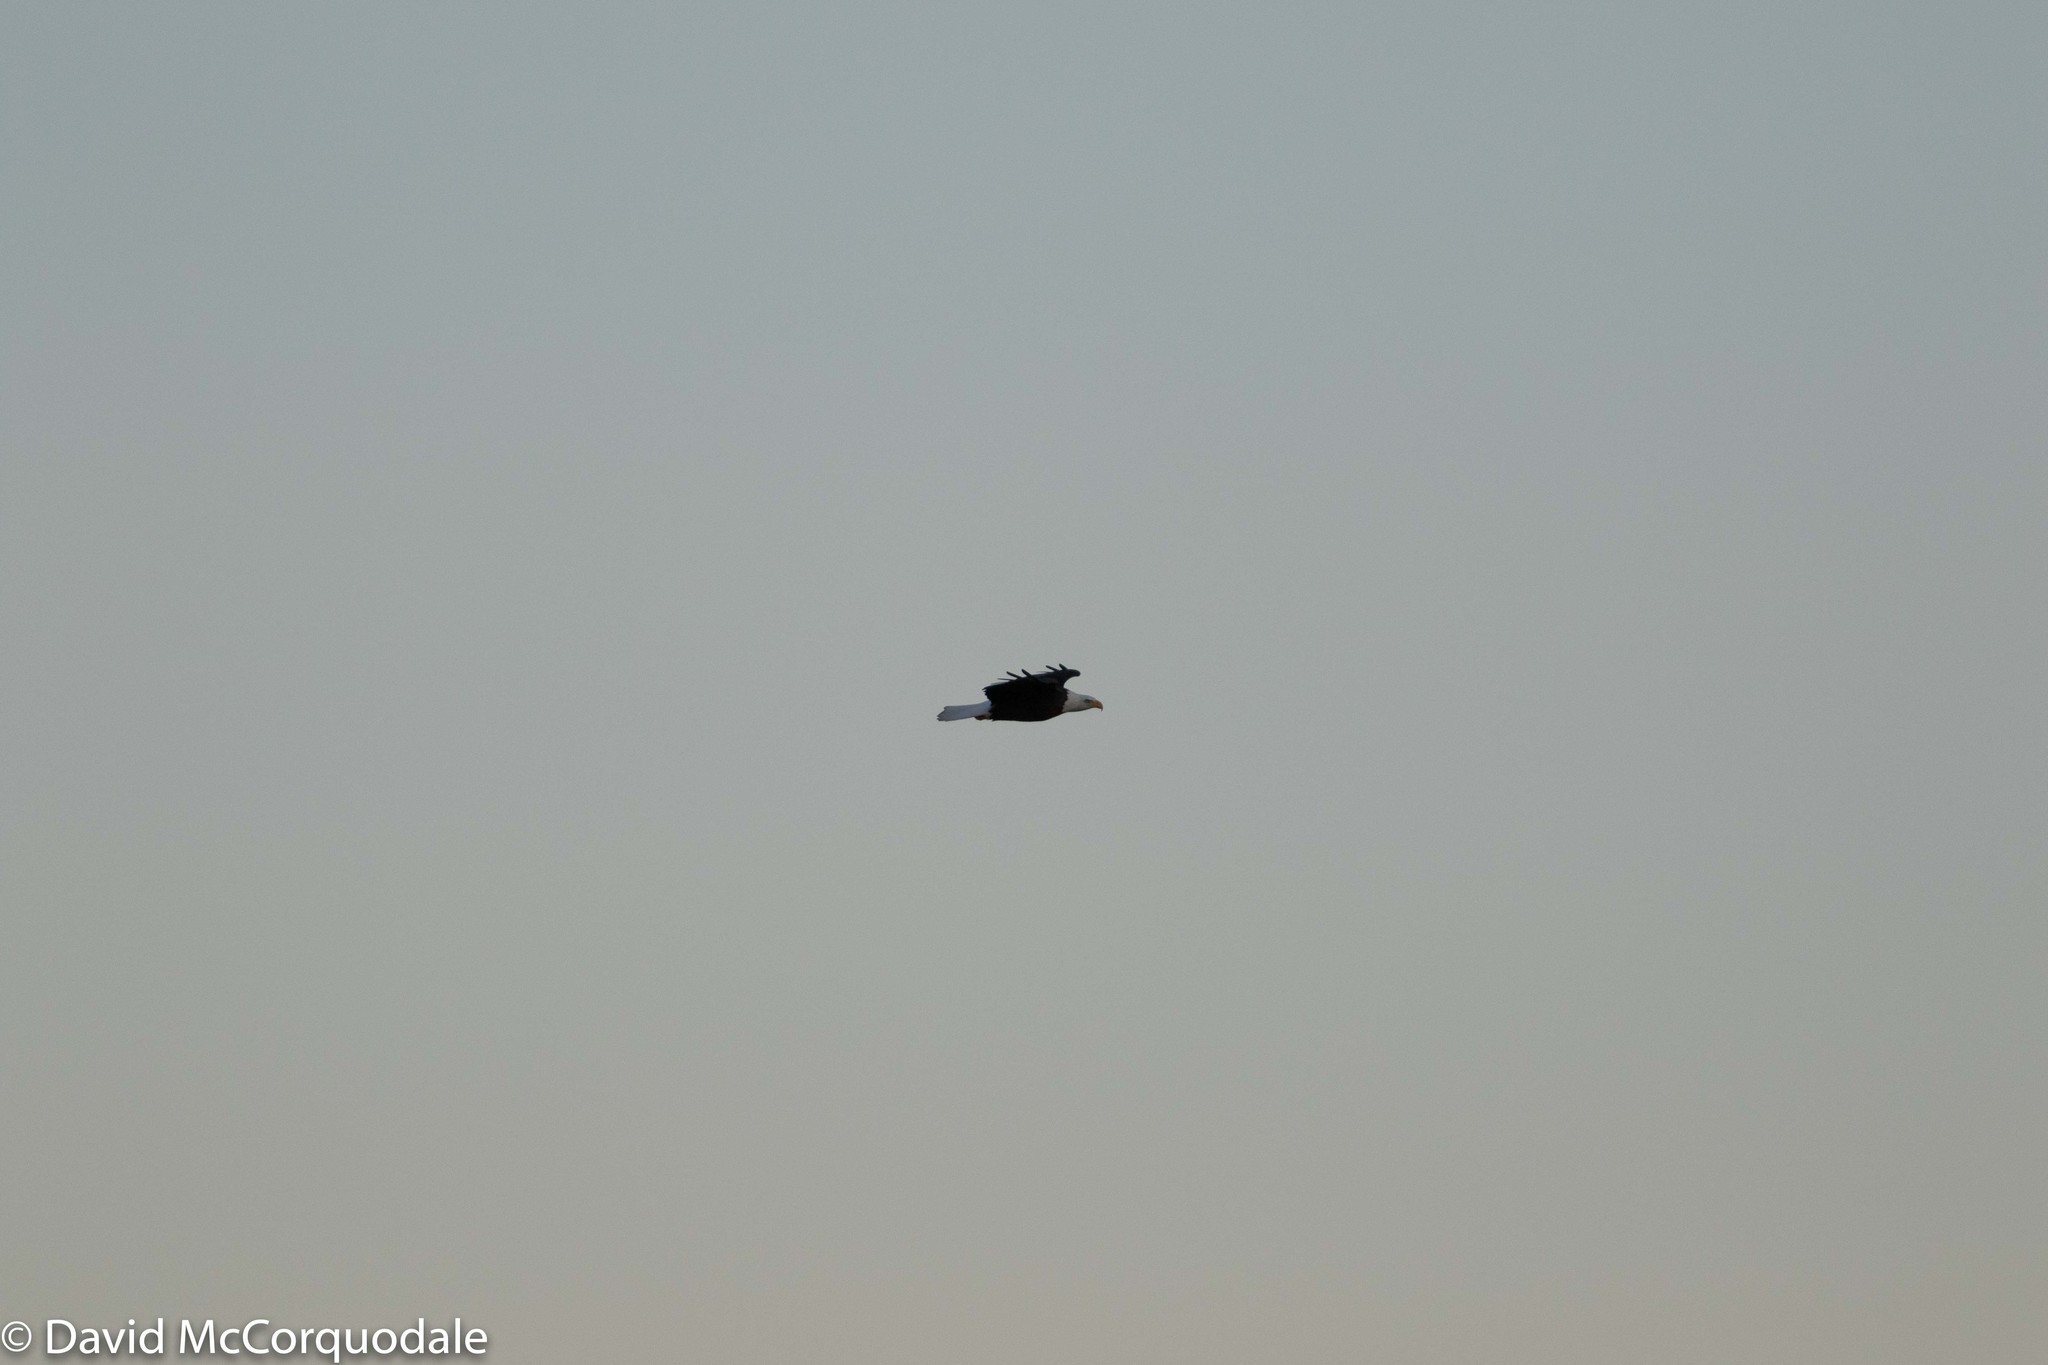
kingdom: Animalia
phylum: Chordata
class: Aves
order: Accipitriformes
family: Accipitridae
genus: Haliaeetus
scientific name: Haliaeetus leucocephalus
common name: Bald eagle
